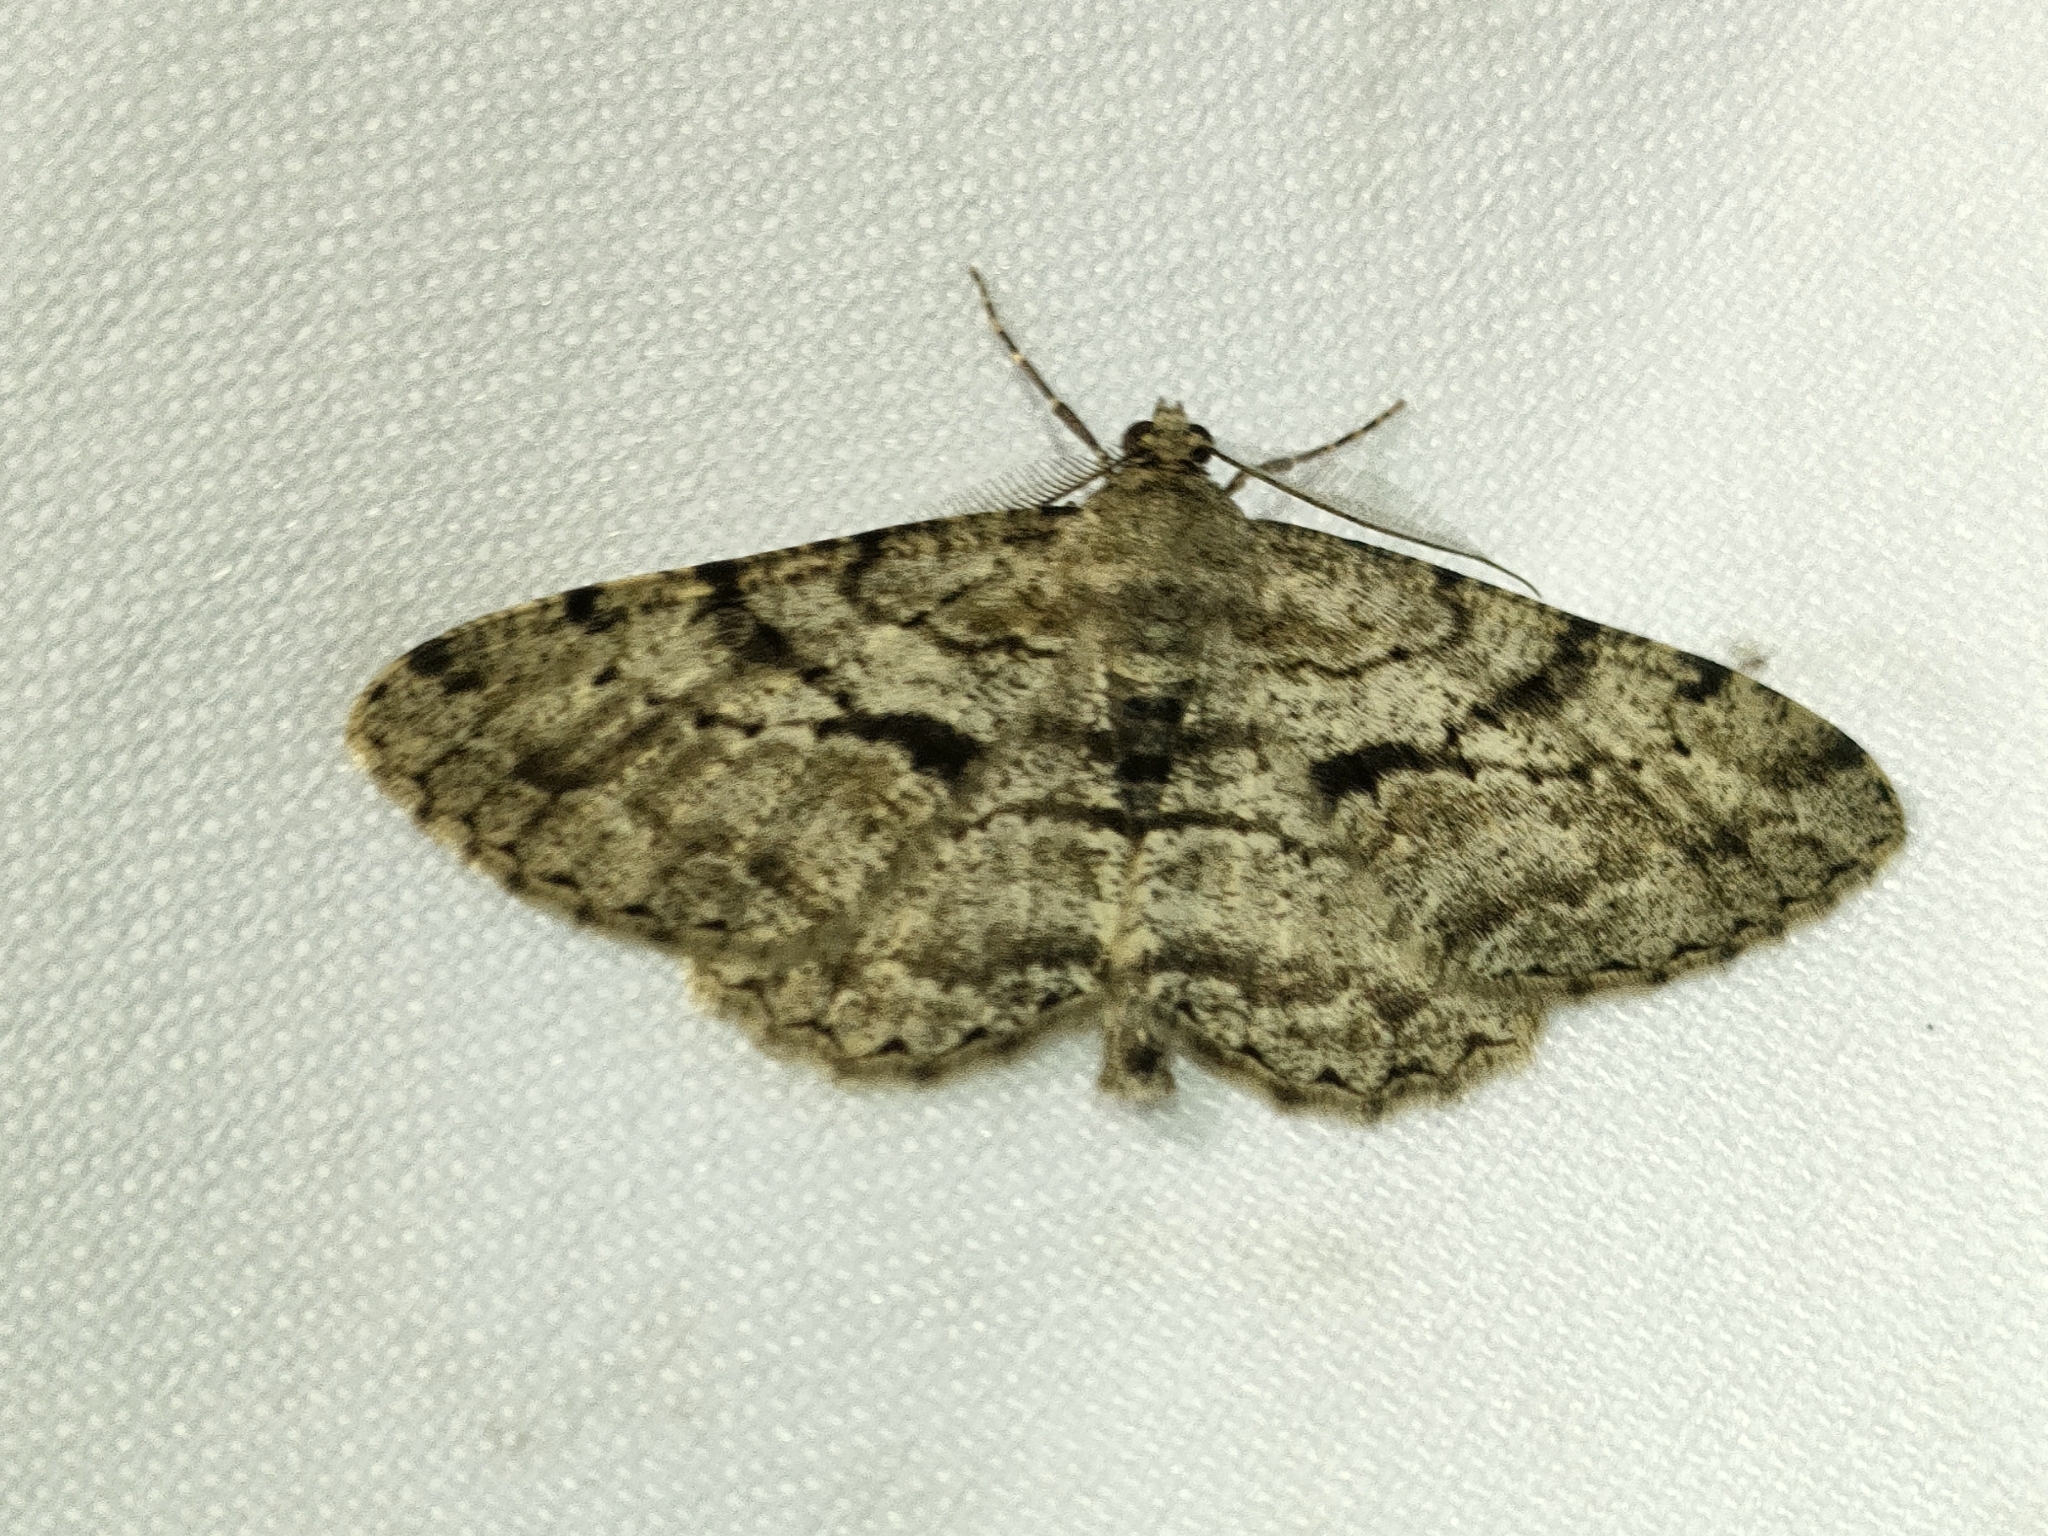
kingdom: Animalia
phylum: Arthropoda
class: Insecta
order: Lepidoptera
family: Geometridae
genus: Peribatodes
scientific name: Peribatodes rhomboidaria
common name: Willow beauty
